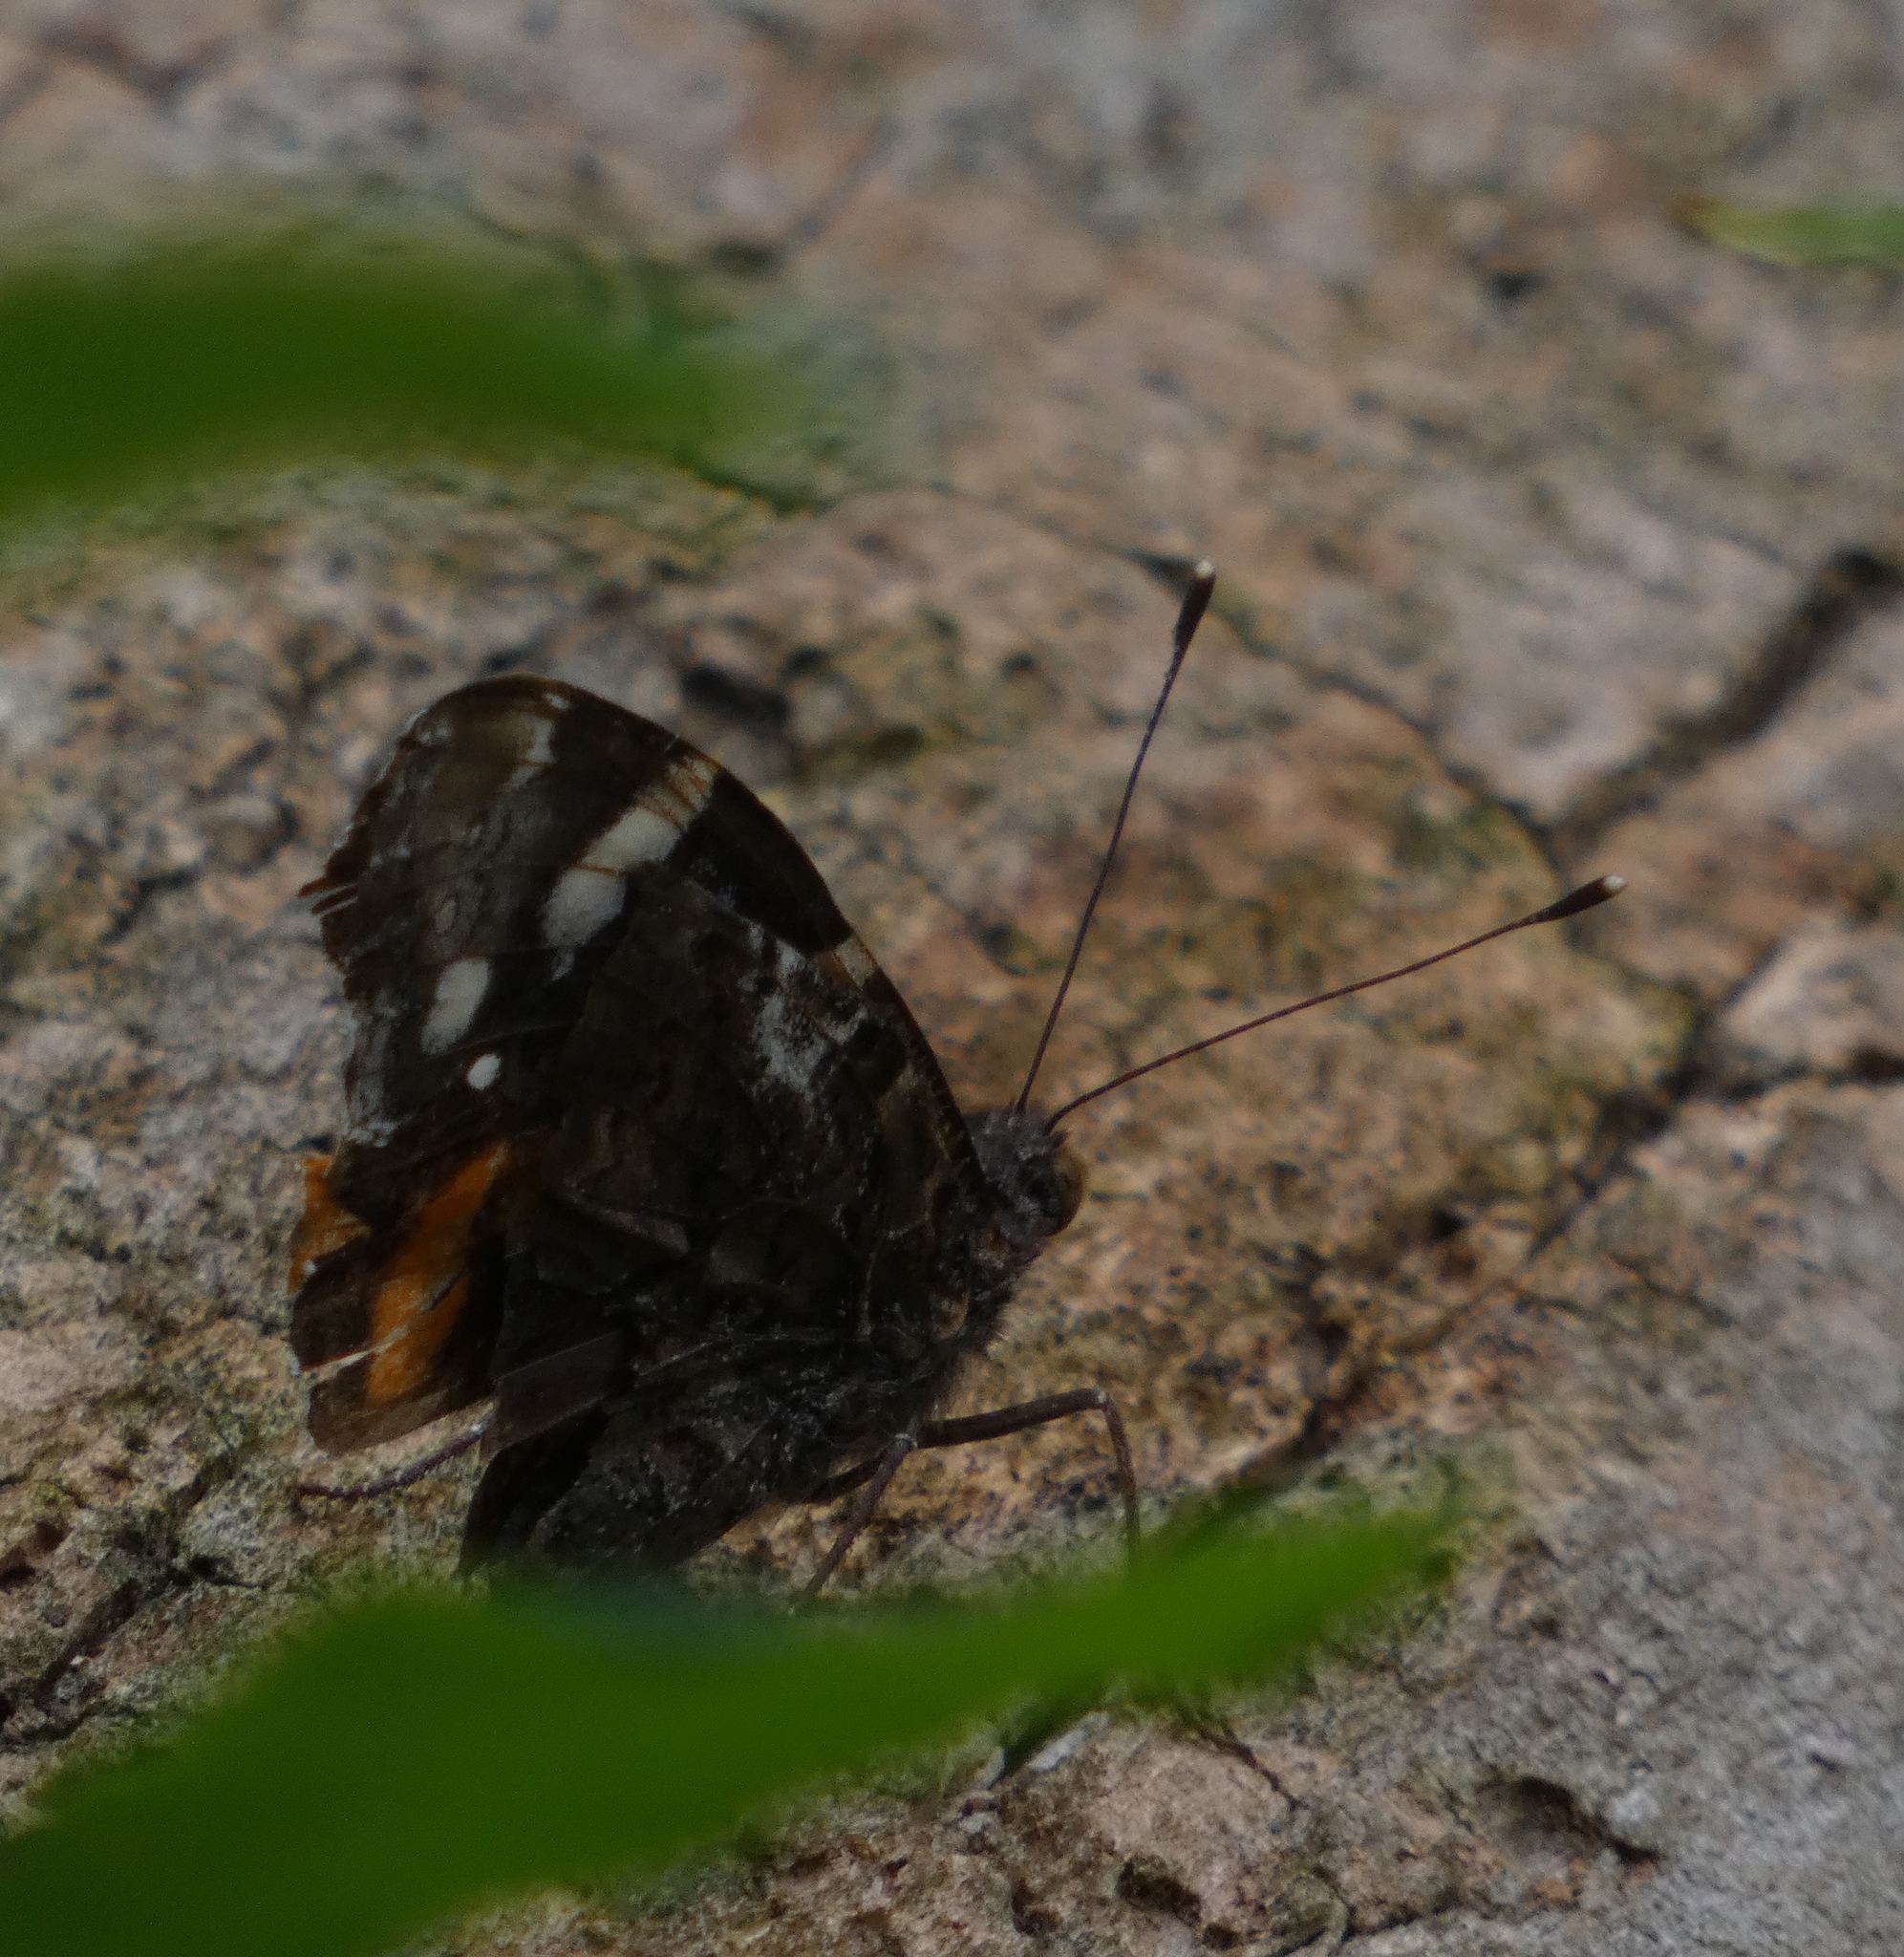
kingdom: Animalia
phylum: Arthropoda
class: Insecta
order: Lepidoptera
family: Nymphalidae
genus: Vanessa
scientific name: Vanessa atalanta
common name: Red admiral
